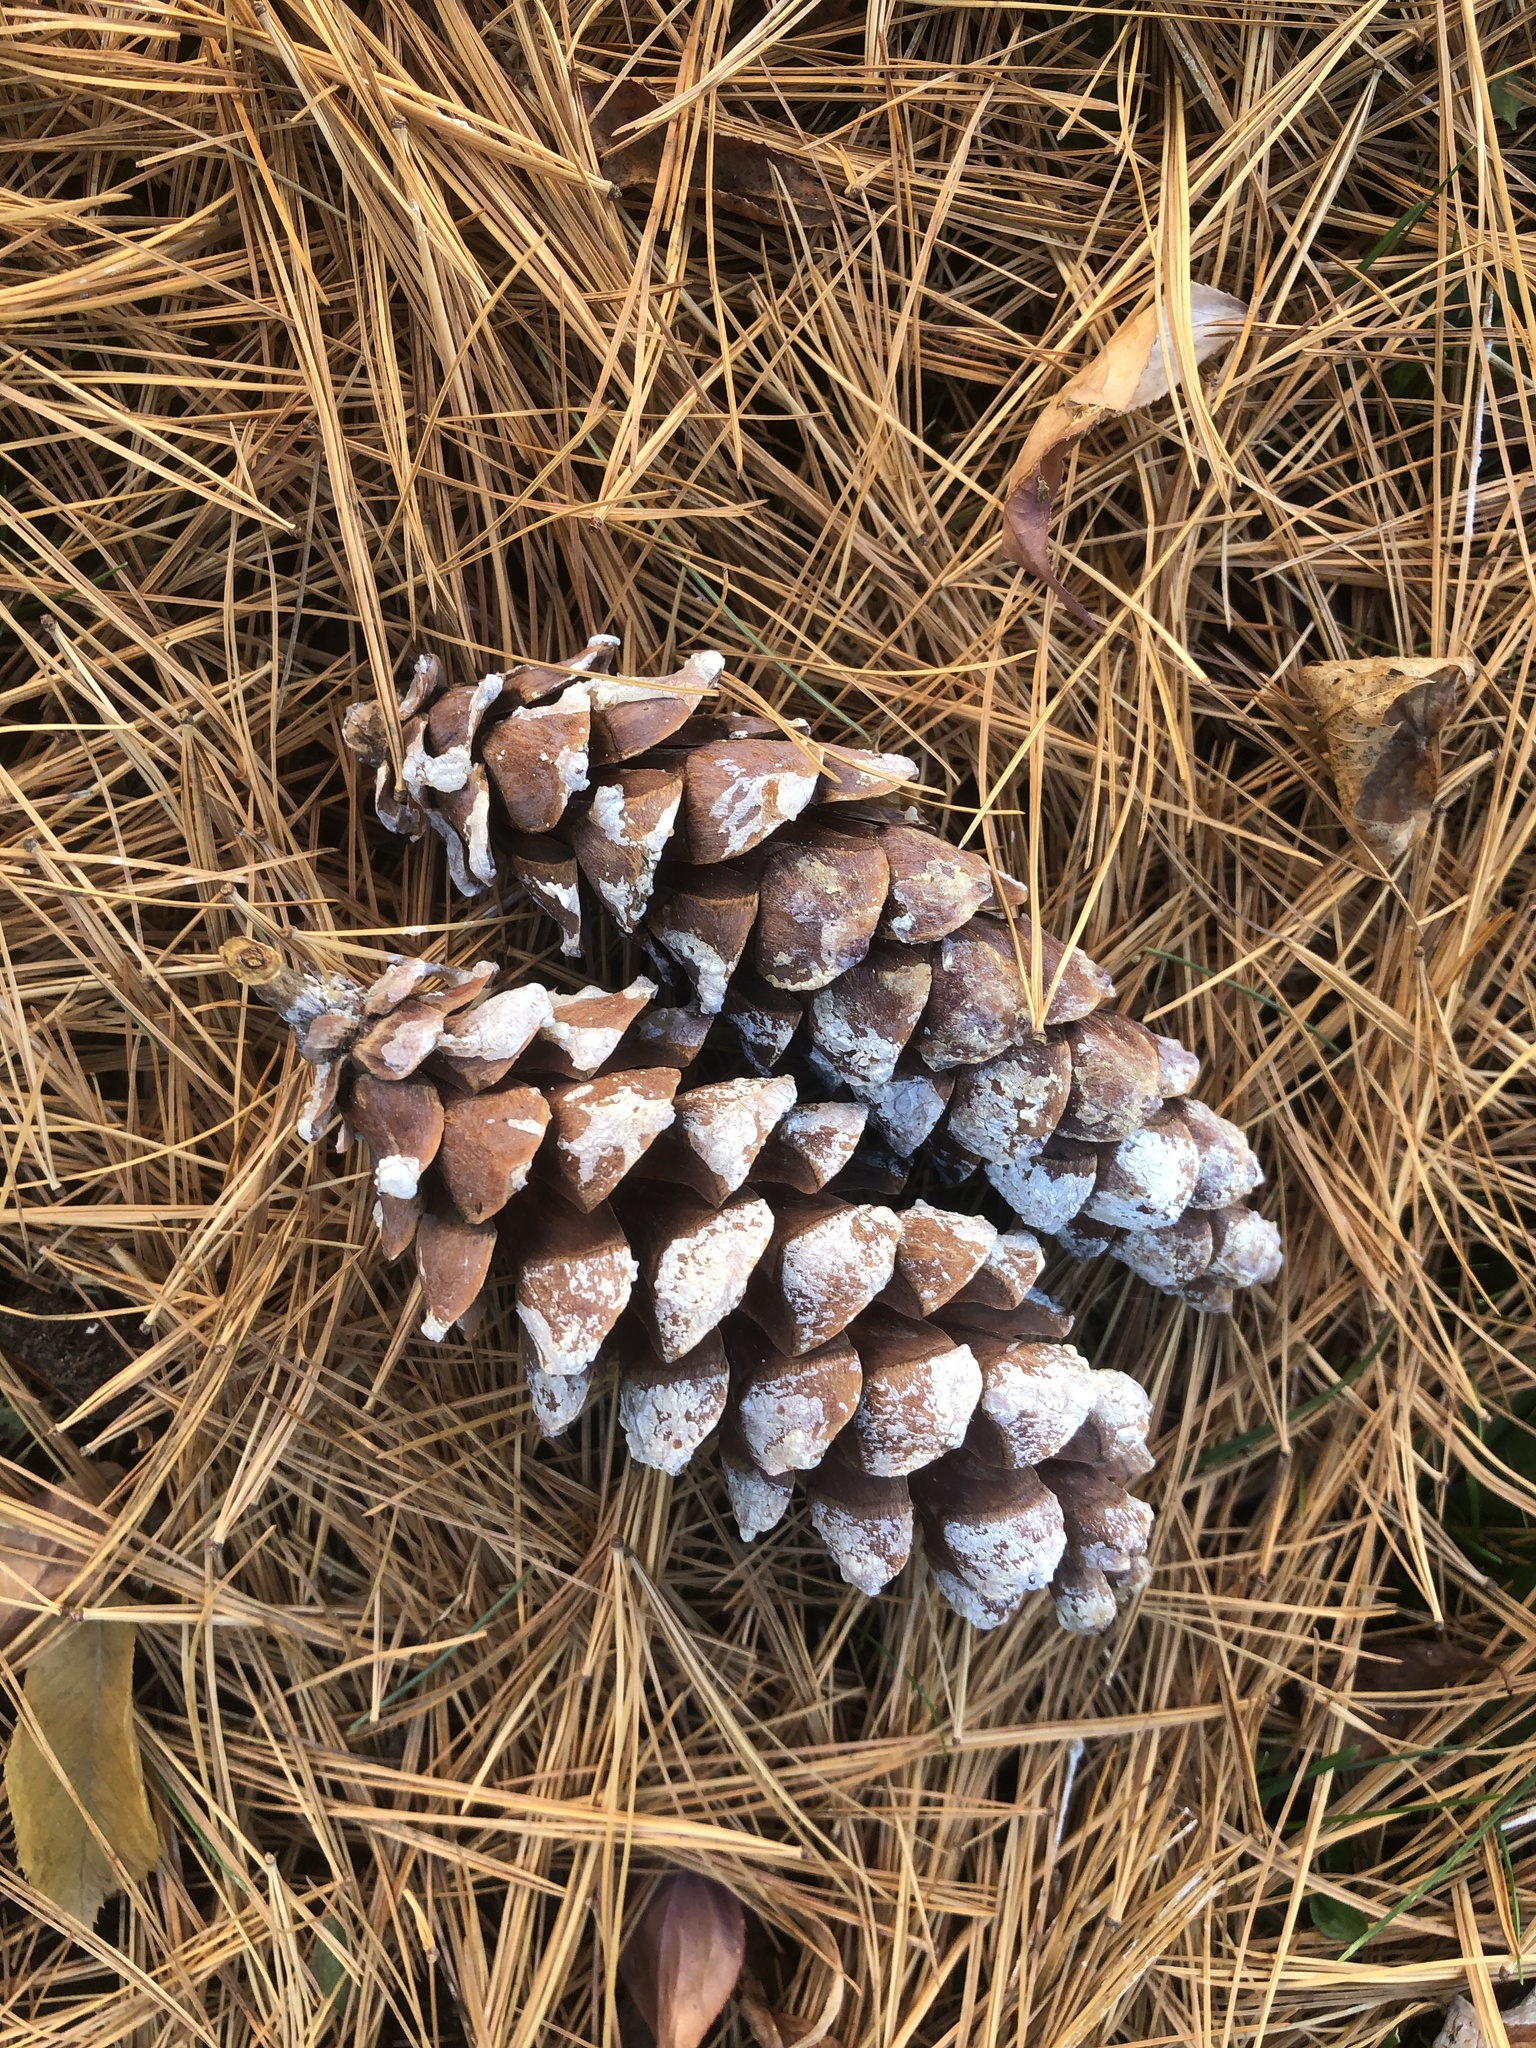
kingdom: Plantae
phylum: Tracheophyta
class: Pinopsida
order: Pinales
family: Pinaceae
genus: Pinus
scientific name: Pinus strobus
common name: Weymouth pine
